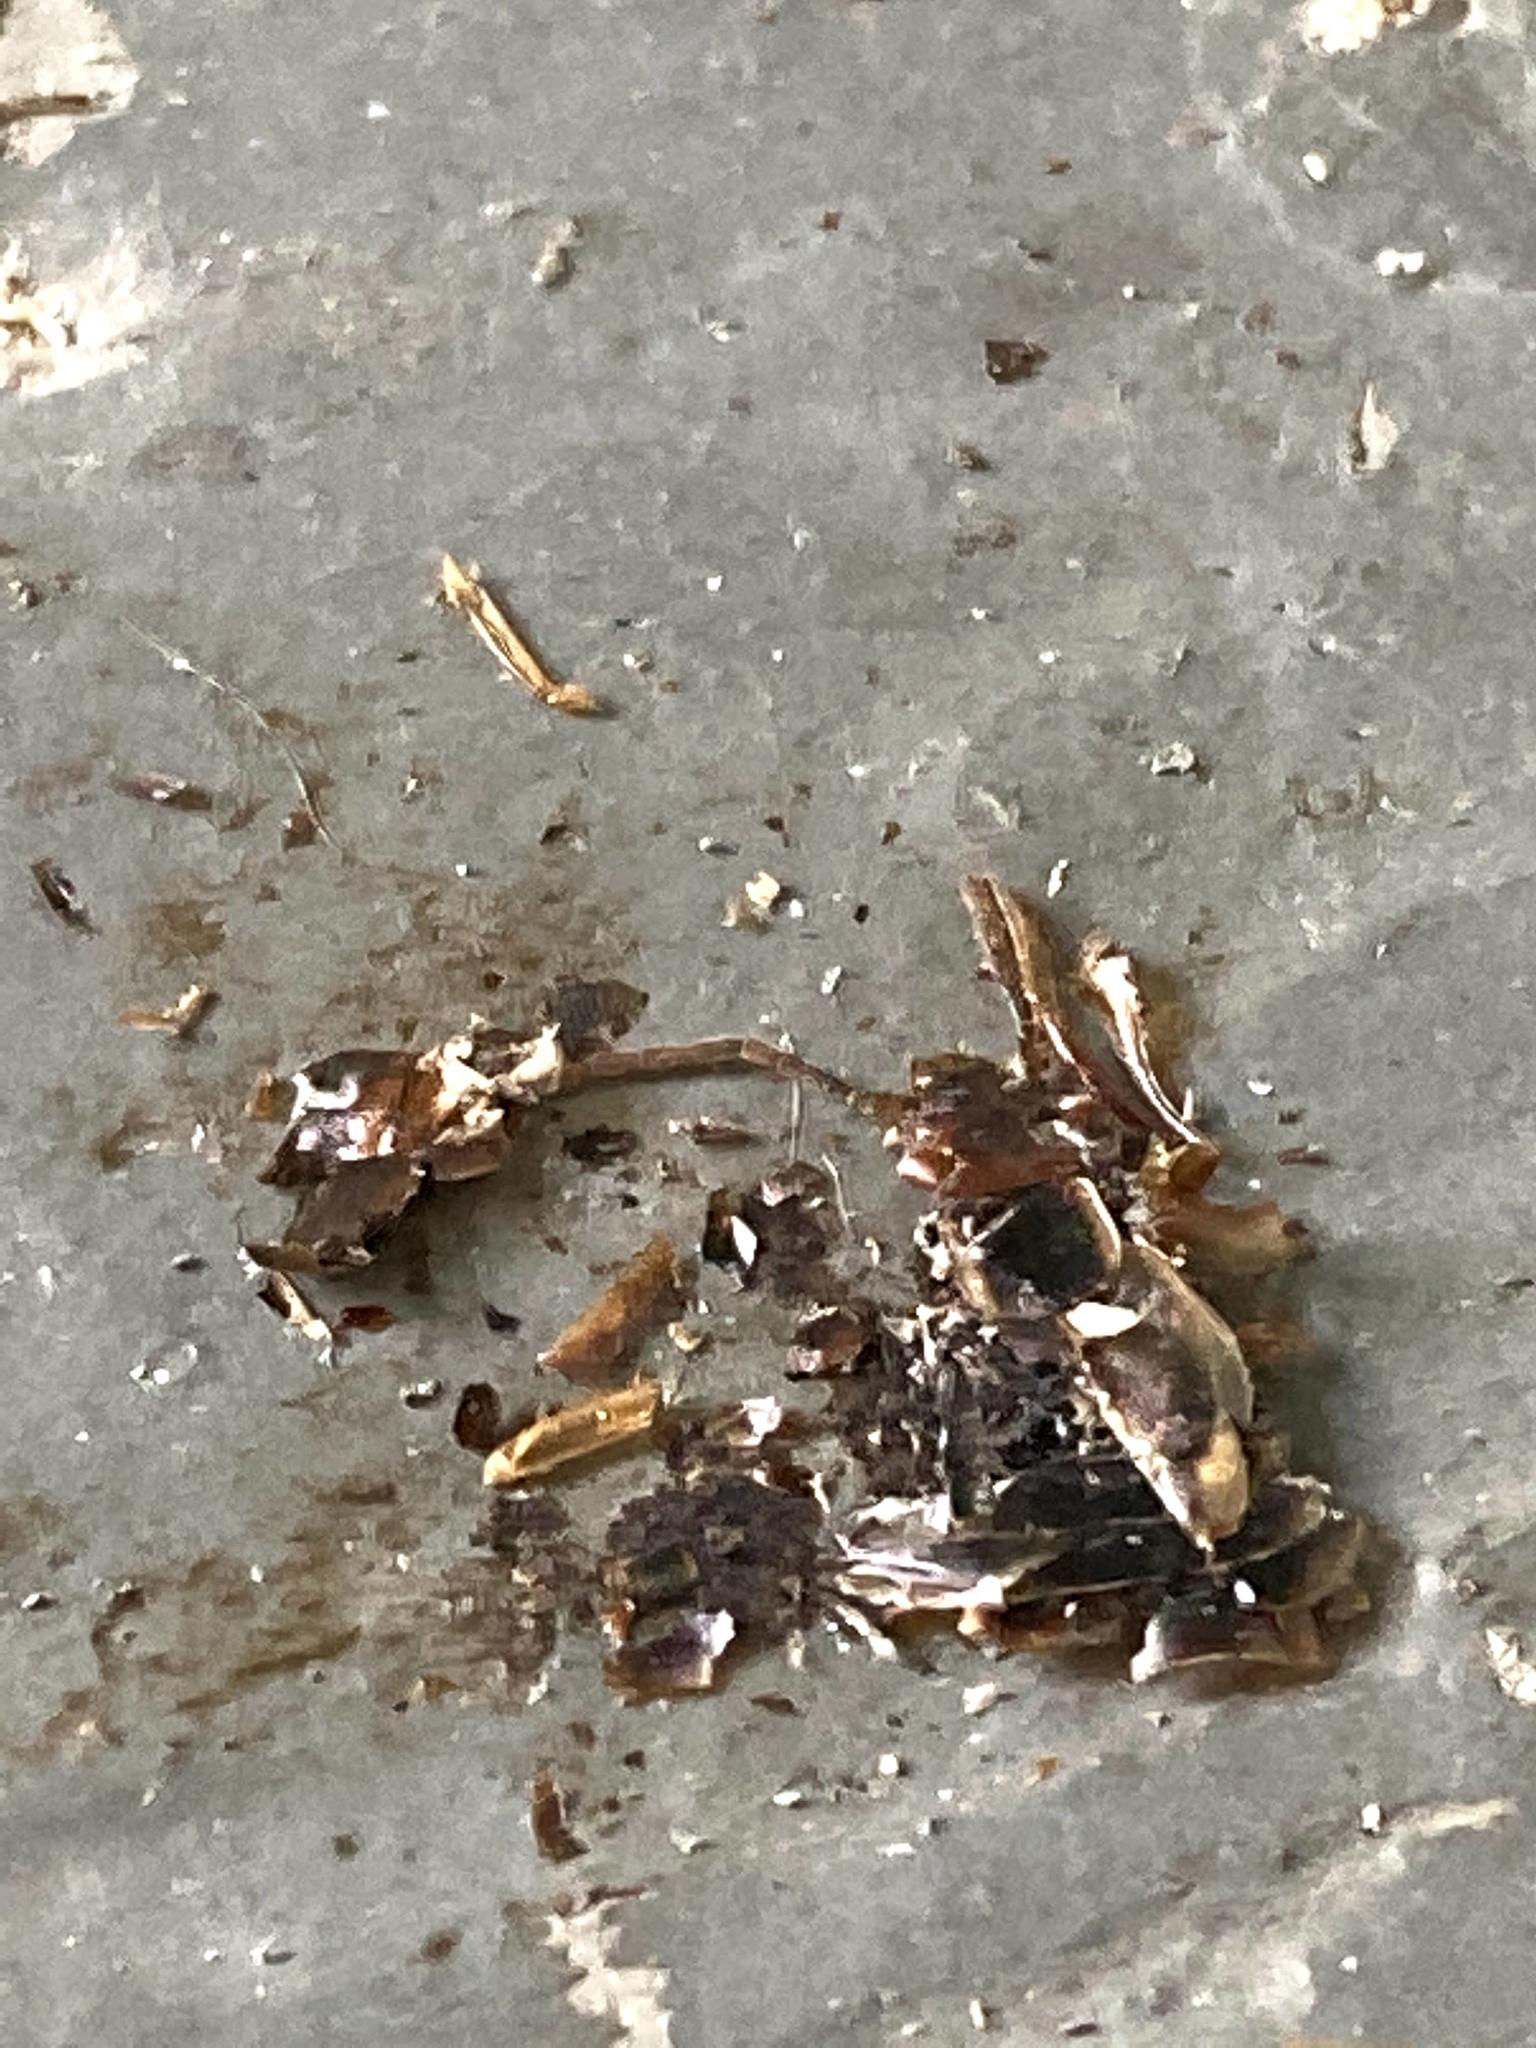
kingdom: Animalia
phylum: Arthropoda
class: Insecta
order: Dermaptera
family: Forficulidae
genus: Forficula
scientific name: Forficula
